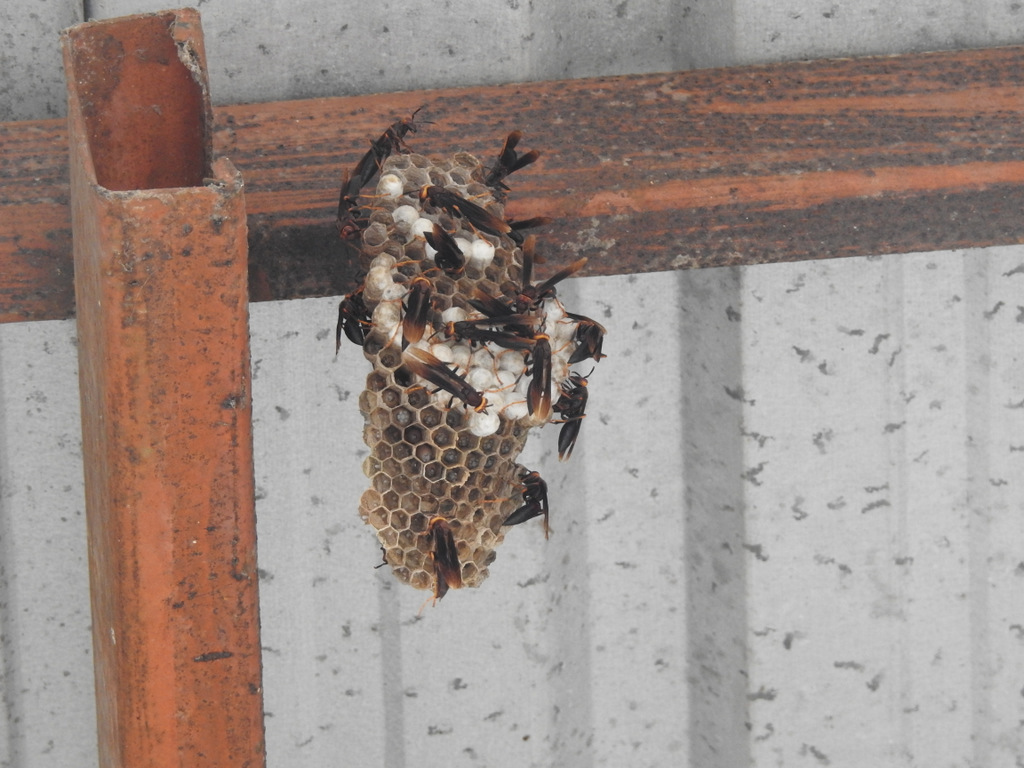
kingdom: Animalia
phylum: Arthropoda
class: Insecta
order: Hymenoptera
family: Eumenidae
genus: Polistes
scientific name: Polistes infuscatus
